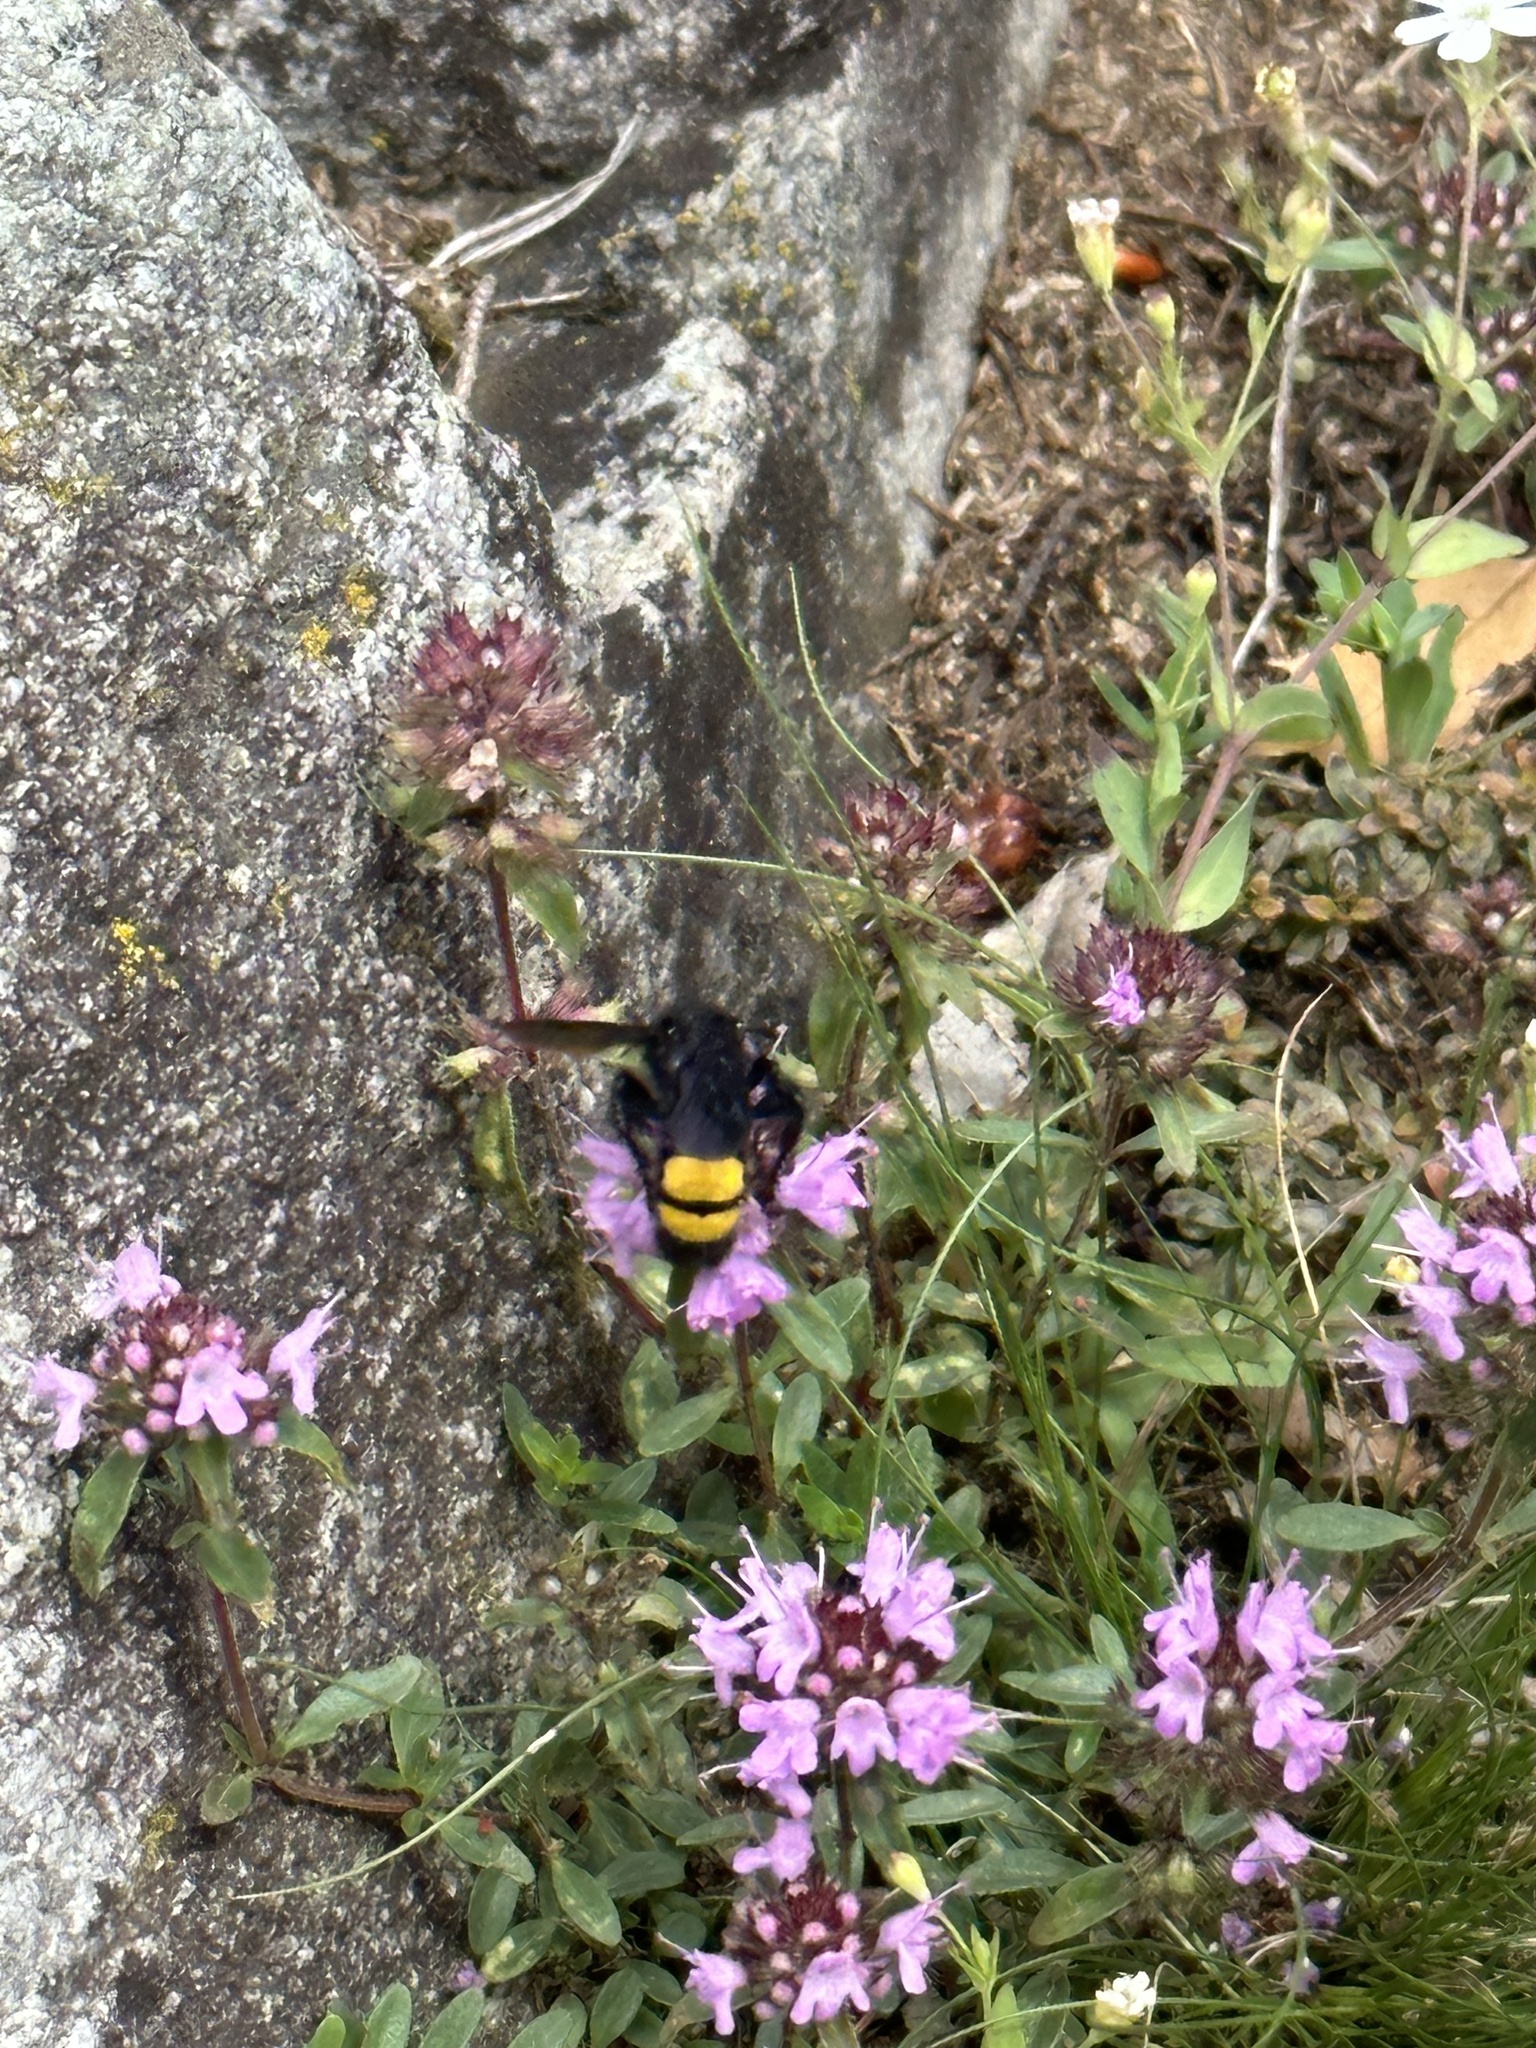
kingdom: Animalia
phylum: Arthropoda
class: Insecta
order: Hymenoptera
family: Scoliidae
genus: Scolia
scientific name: Scolia hirta
